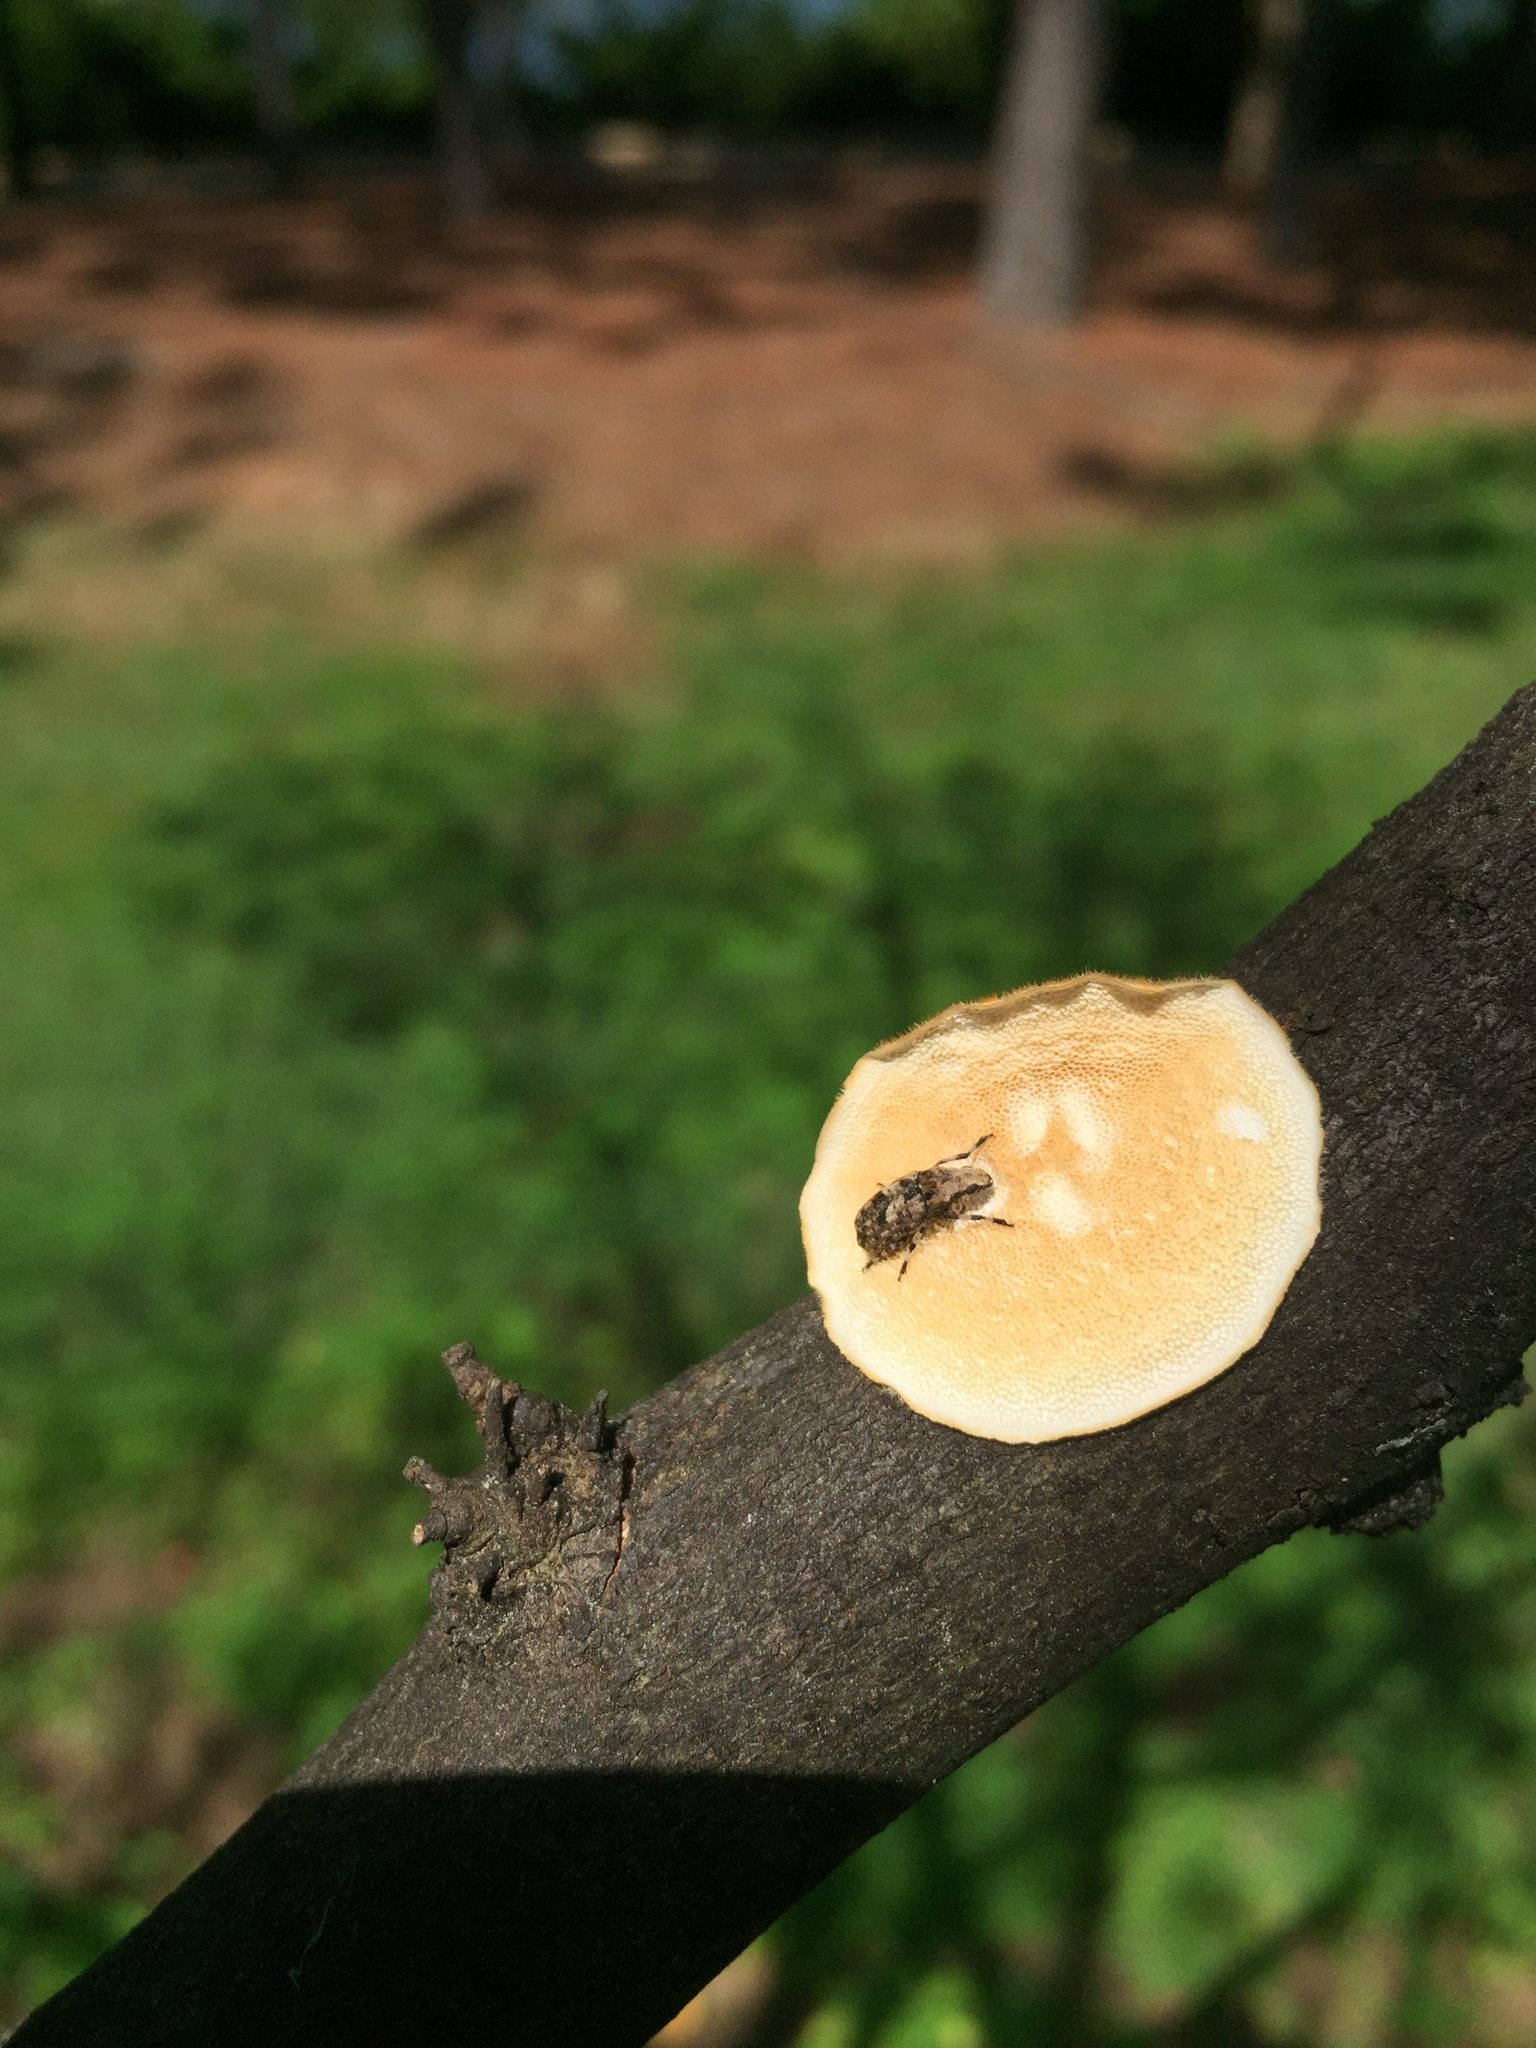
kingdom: Animalia
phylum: Arthropoda
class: Insecta
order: Coleoptera
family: Anthribidae
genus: Euparius
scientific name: Euparius marmoreus
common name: Marbled fungus weevil
